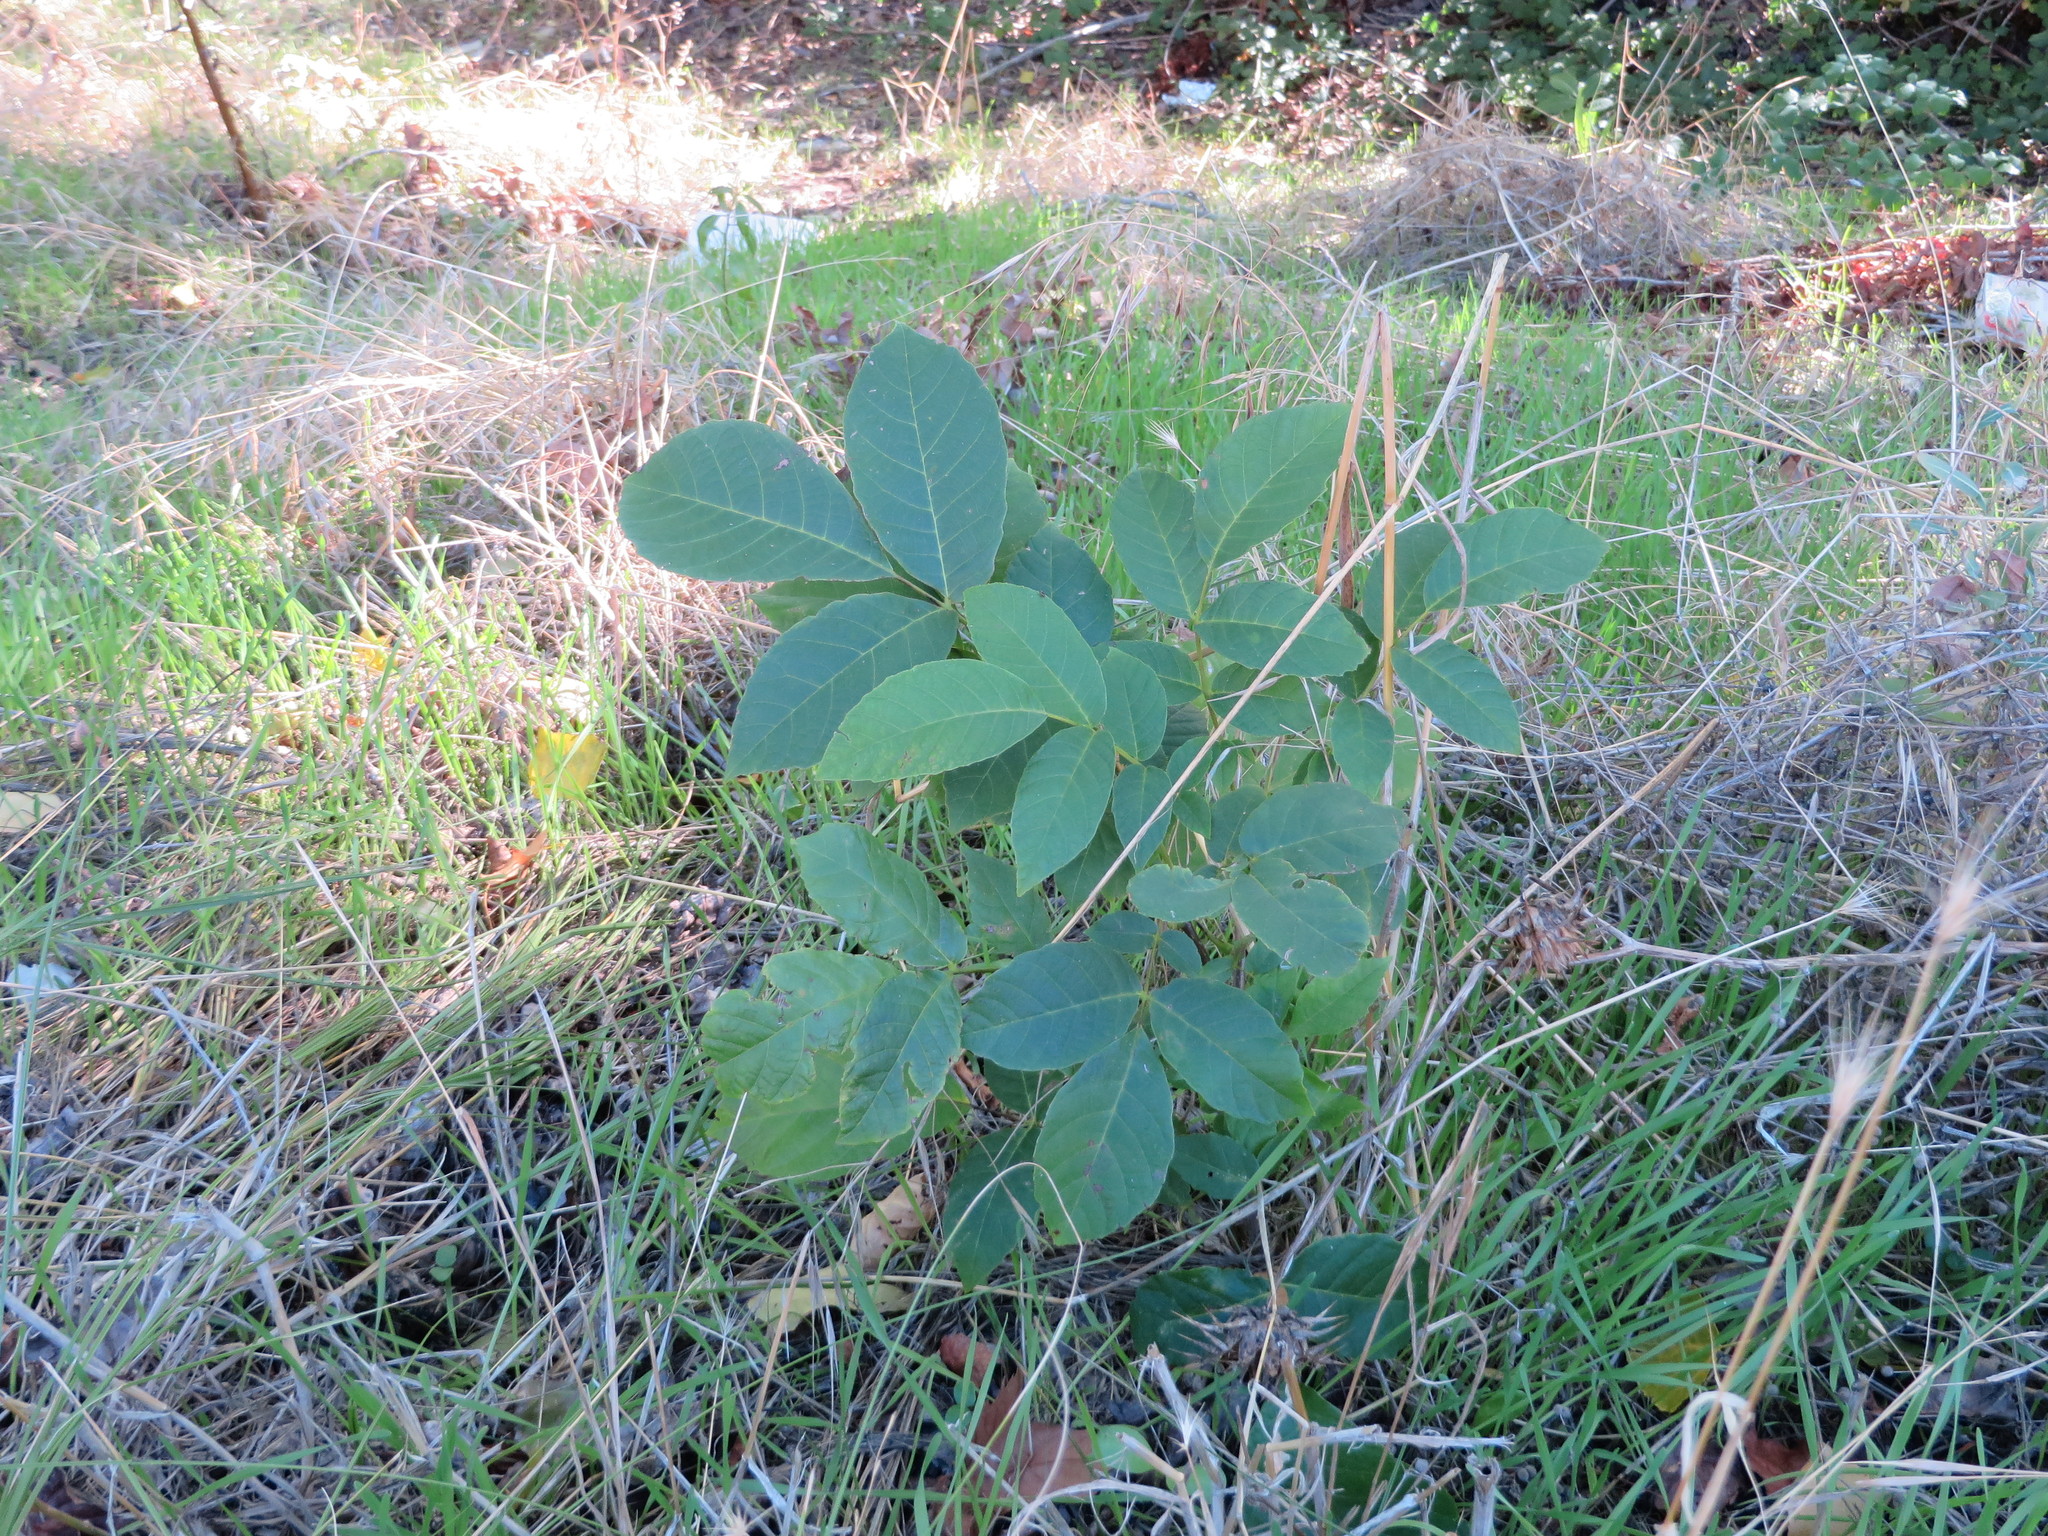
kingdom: Plantae
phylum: Tracheophyta
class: Magnoliopsida
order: Fagales
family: Juglandaceae
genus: Juglans
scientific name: Juglans regia
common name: Walnut
